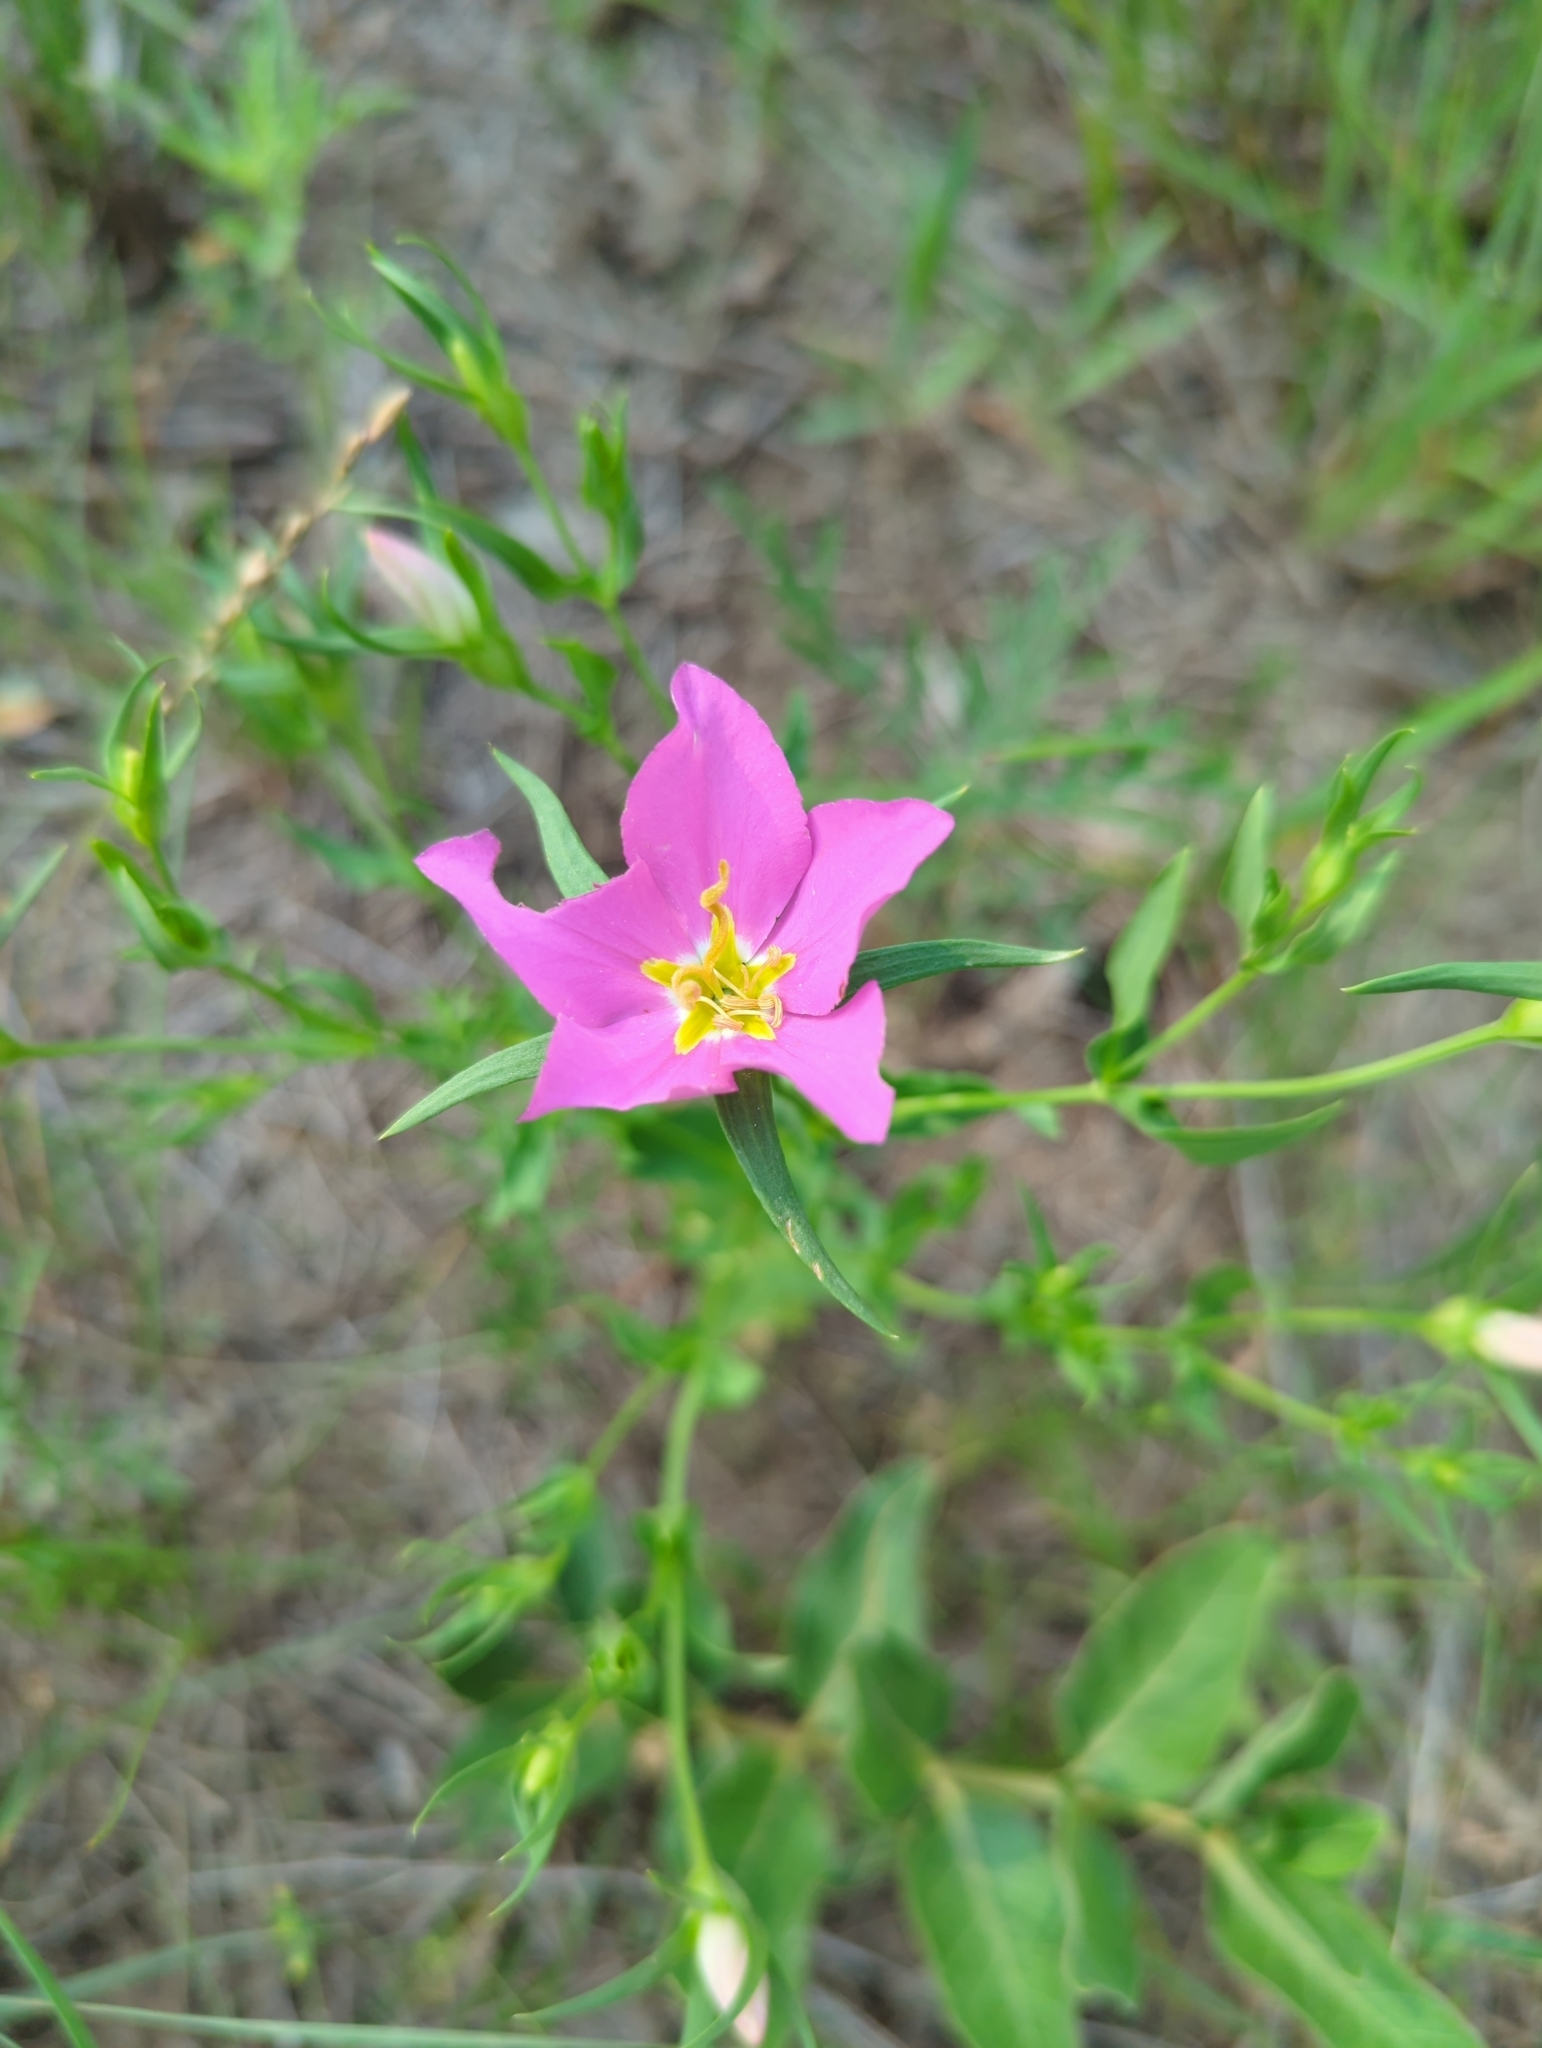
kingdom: Plantae
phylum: Tracheophyta
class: Magnoliopsida
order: Gentianales
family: Gentianaceae
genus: Sabatia
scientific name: Sabatia campestris
